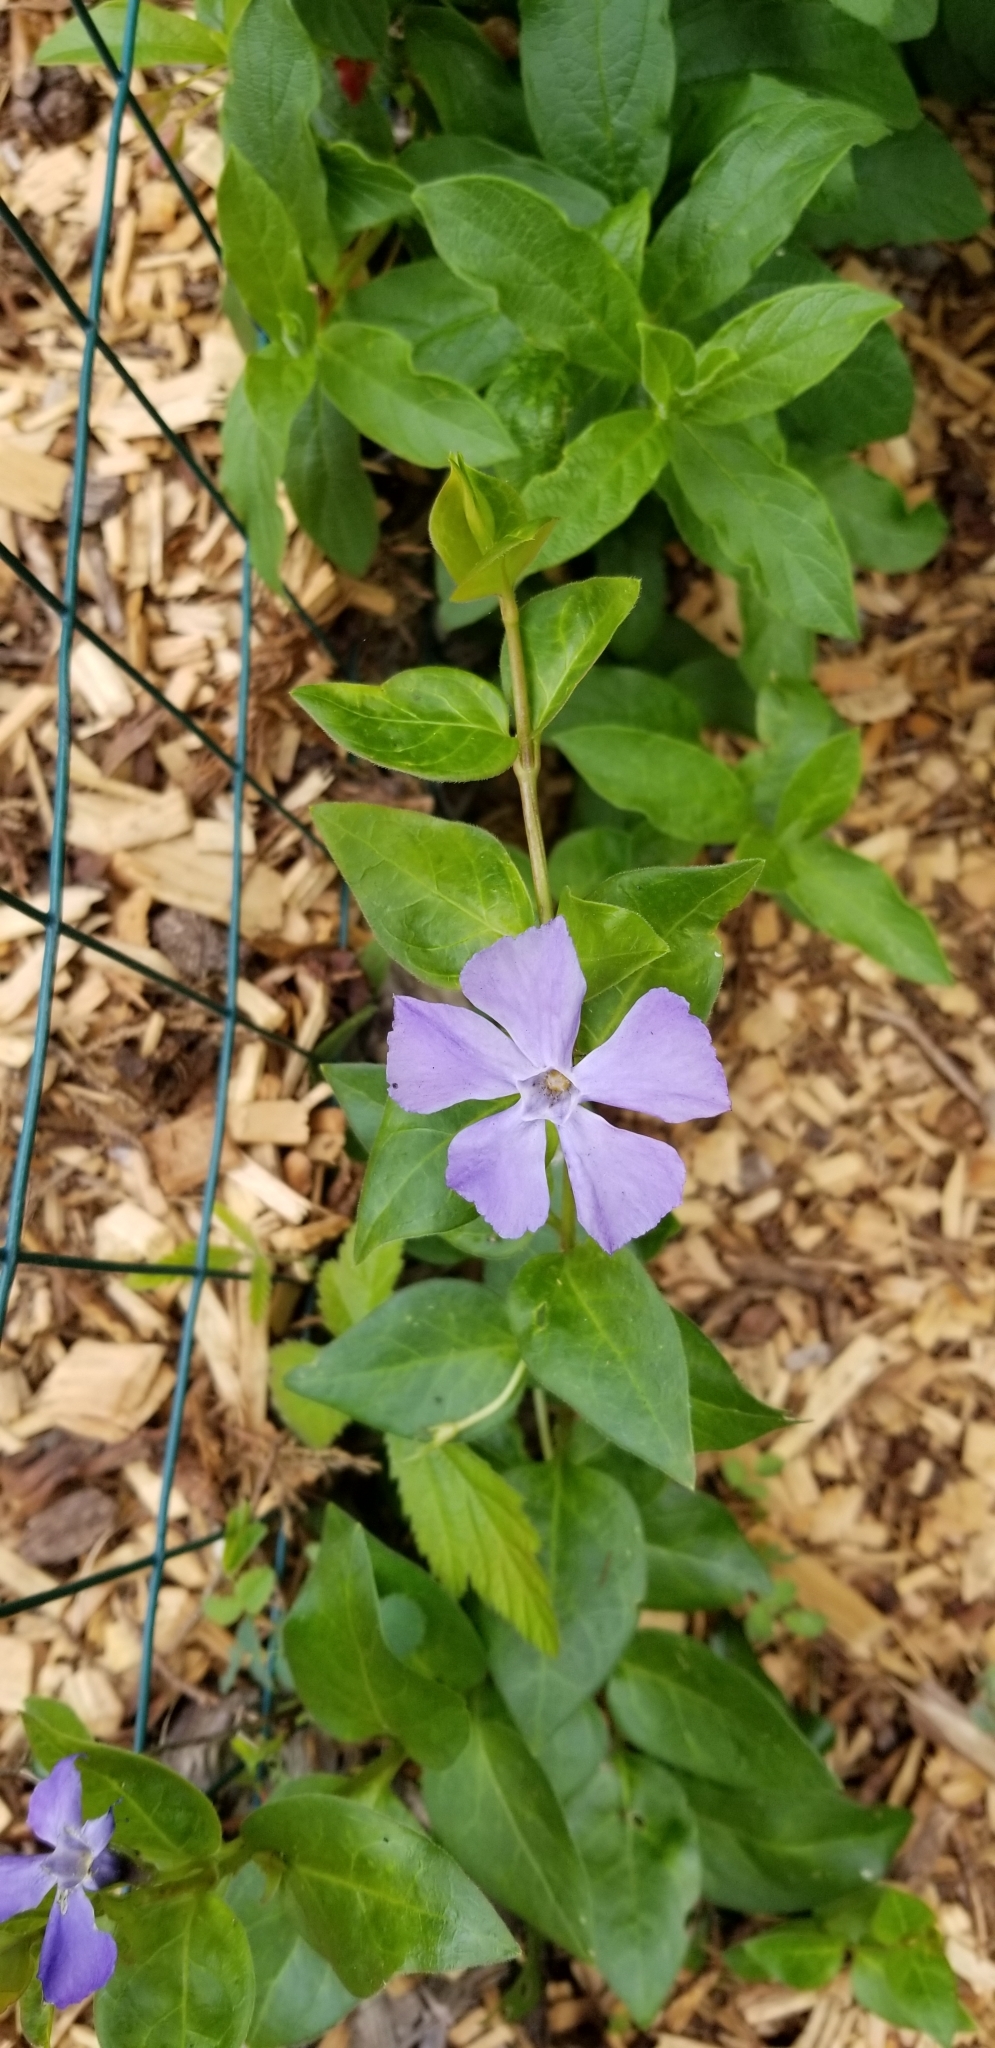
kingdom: Plantae
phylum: Tracheophyta
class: Magnoliopsida
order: Gentianales
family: Apocynaceae
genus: Vinca
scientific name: Vinca major
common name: Greater periwinkle
